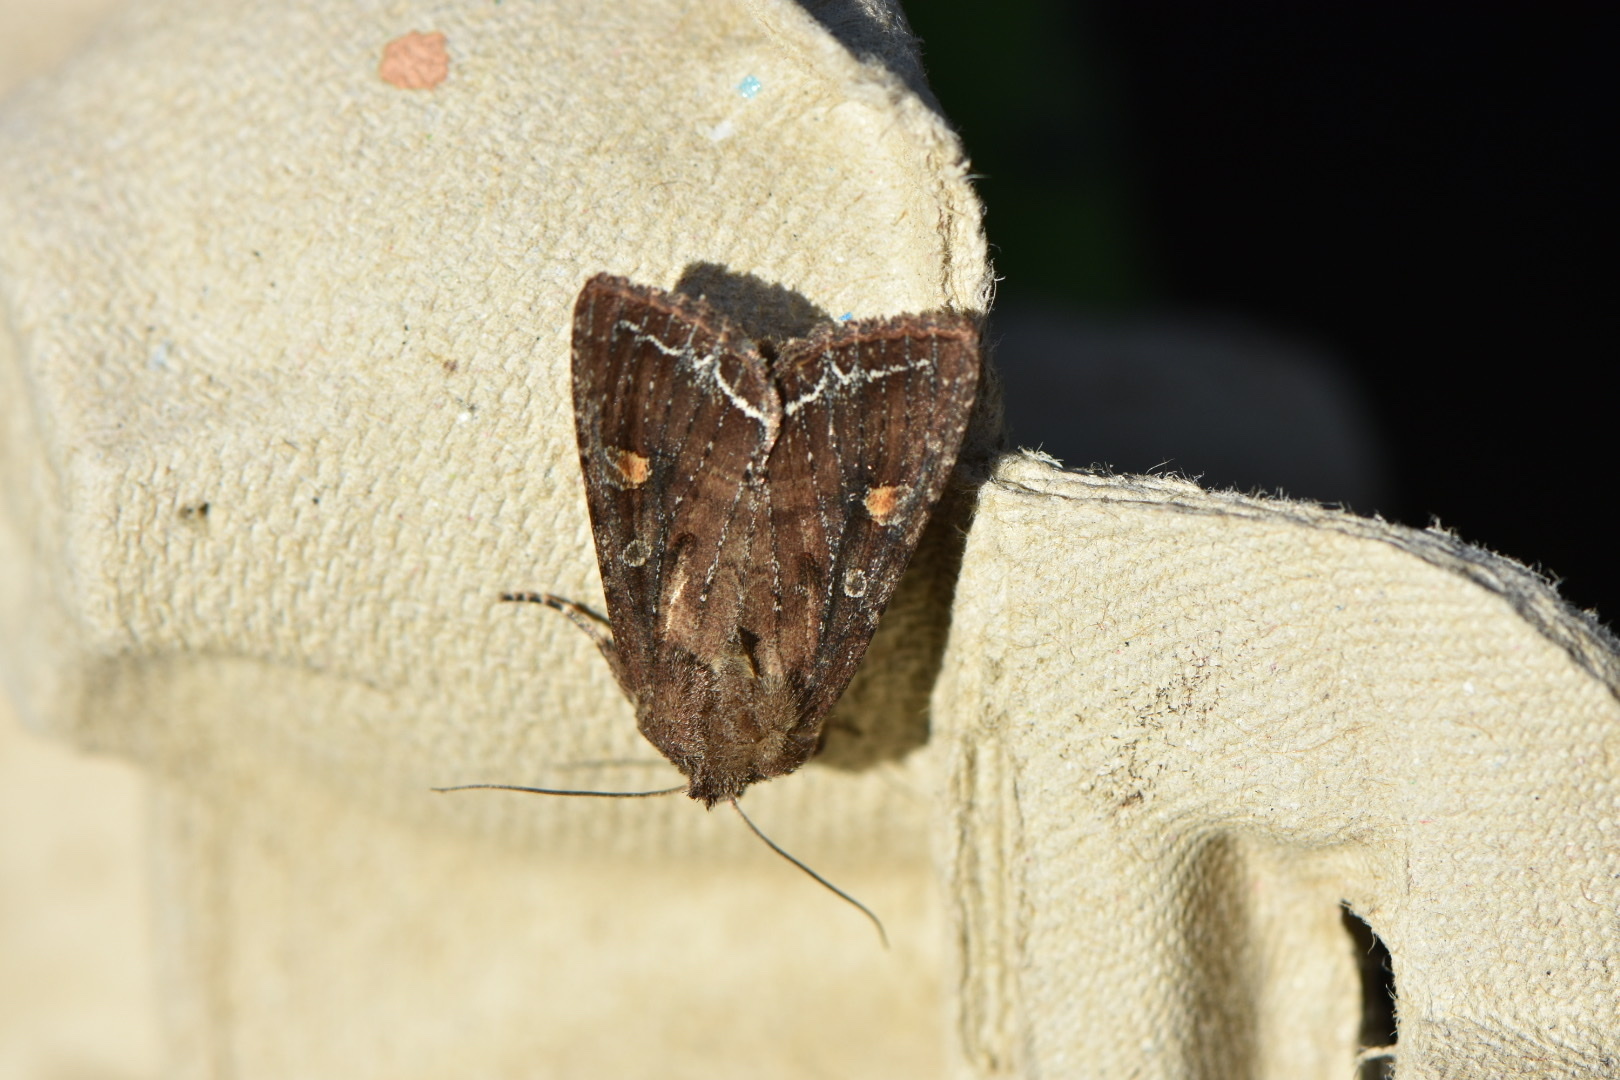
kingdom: Animalia
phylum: Arthropoda
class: Insecta
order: Lepidoptera
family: Noctuidae
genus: Lacanobia
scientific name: Lacanobia oleracea
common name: Bright-line brown-eye
